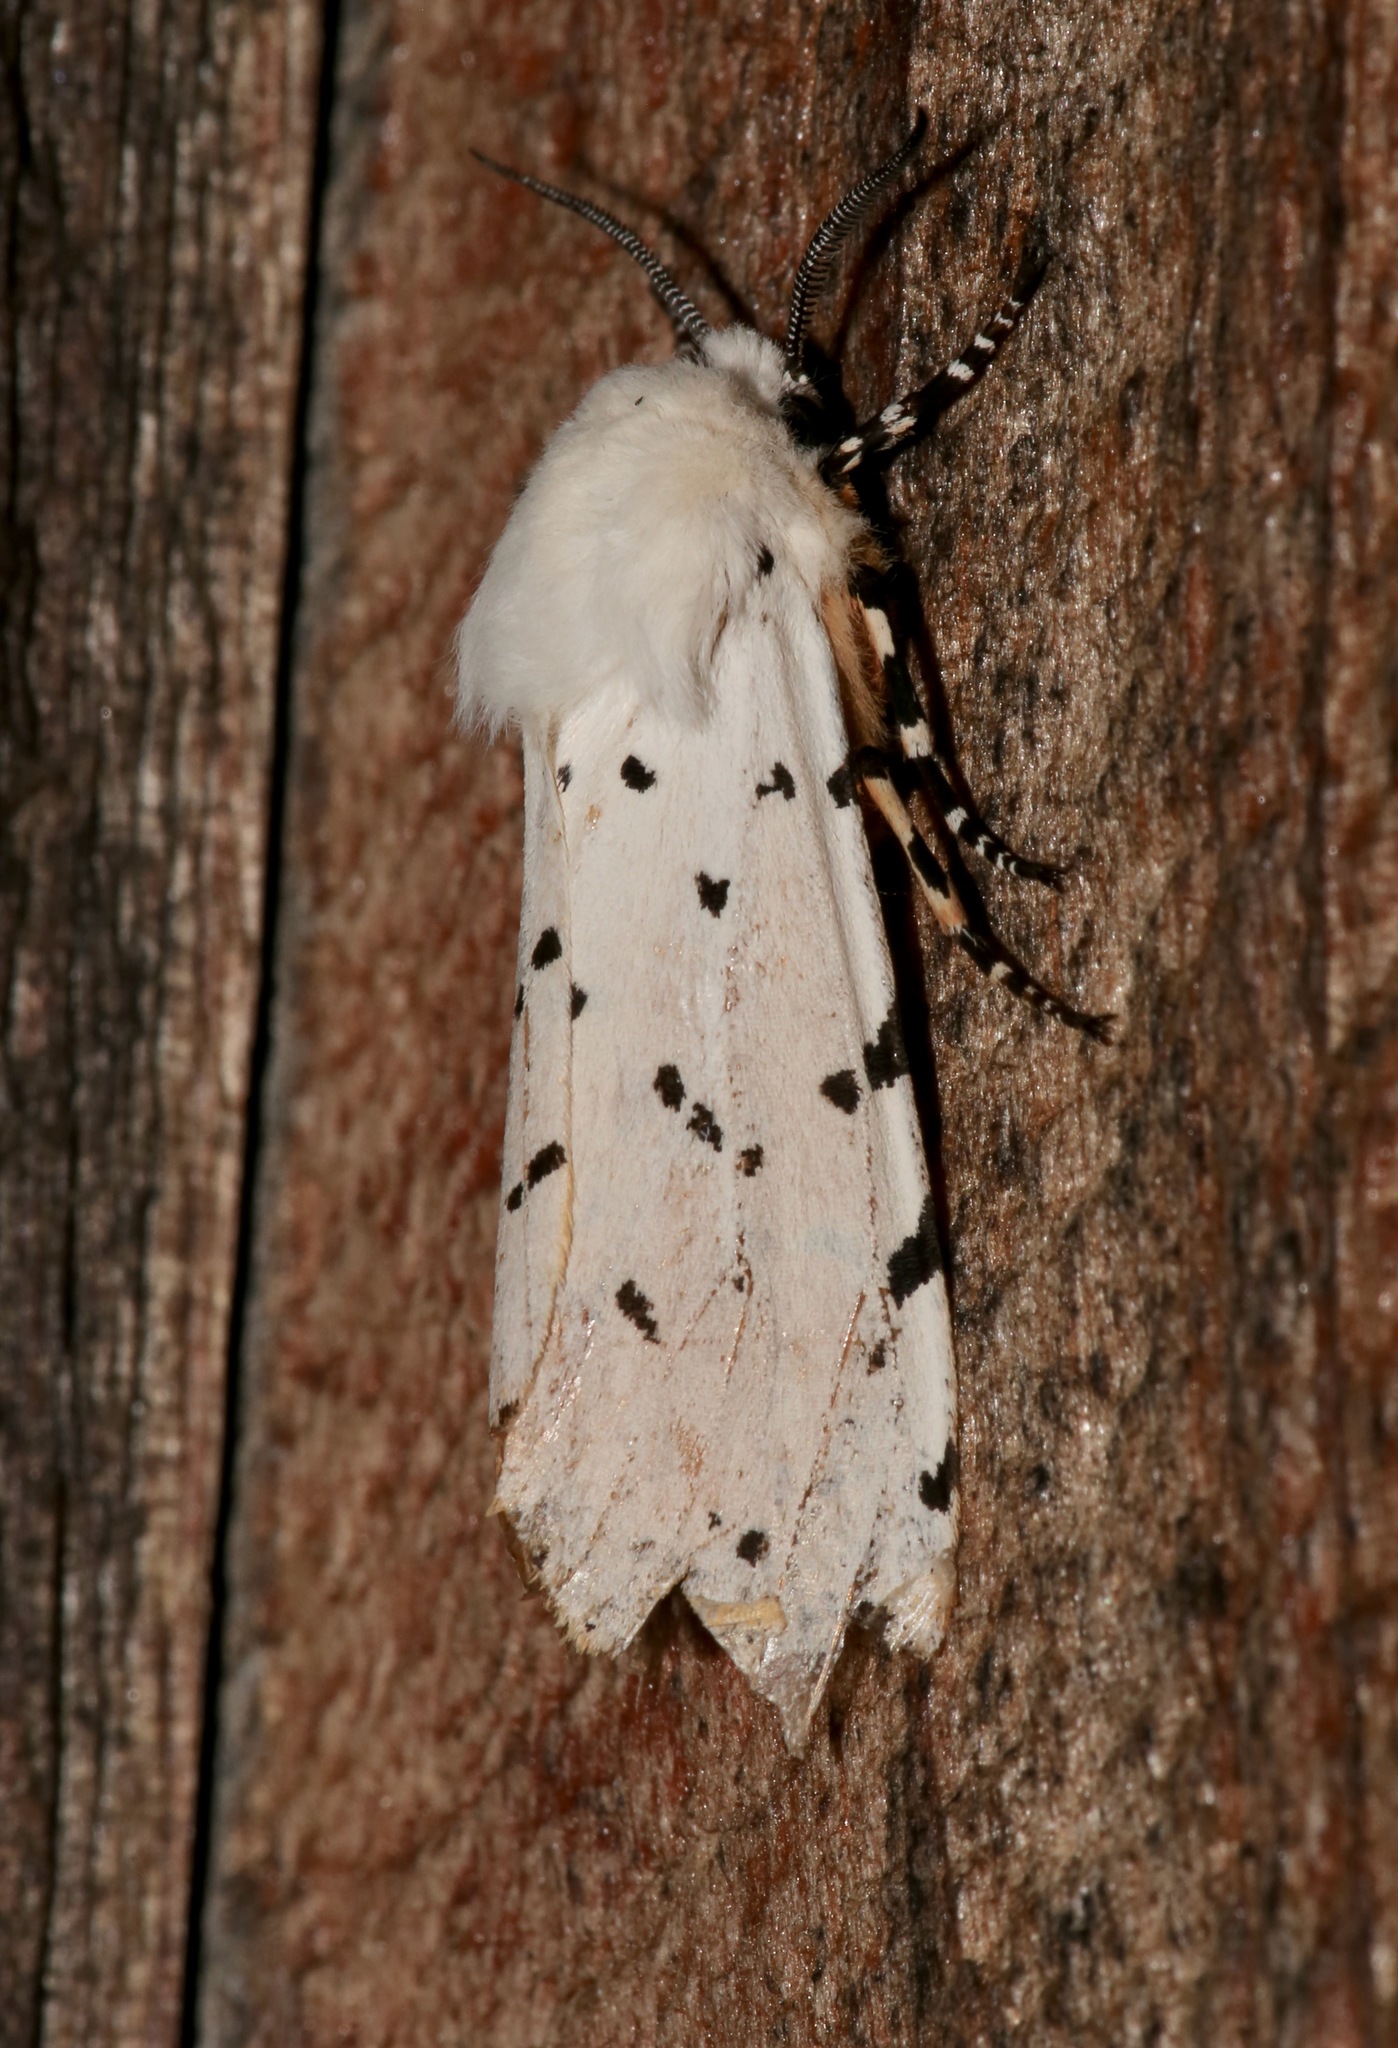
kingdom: Animalia
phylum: Arthropoda
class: Insecta
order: Lepidoptera
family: Erebidae
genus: Estigmene
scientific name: Estigmene acrea
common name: Salt marsh moth
